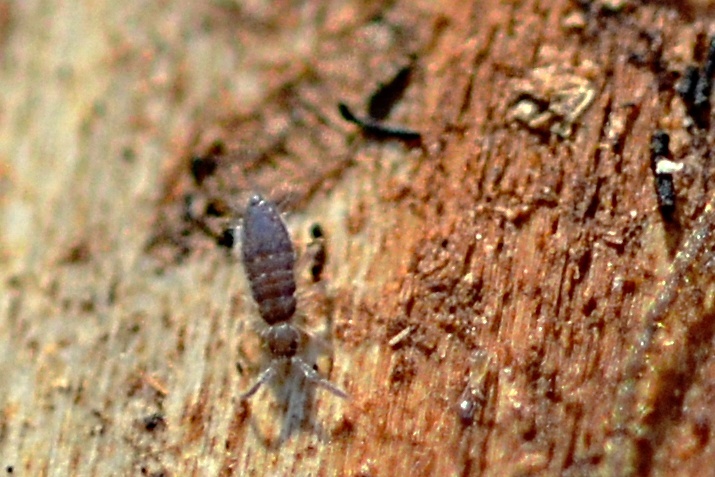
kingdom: Animalia
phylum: Arthropoda
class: Collembola
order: Entomobryomorpha
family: Entomobryidae
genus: Willowsia
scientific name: Willowsia buski
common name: Damp grain springtail
